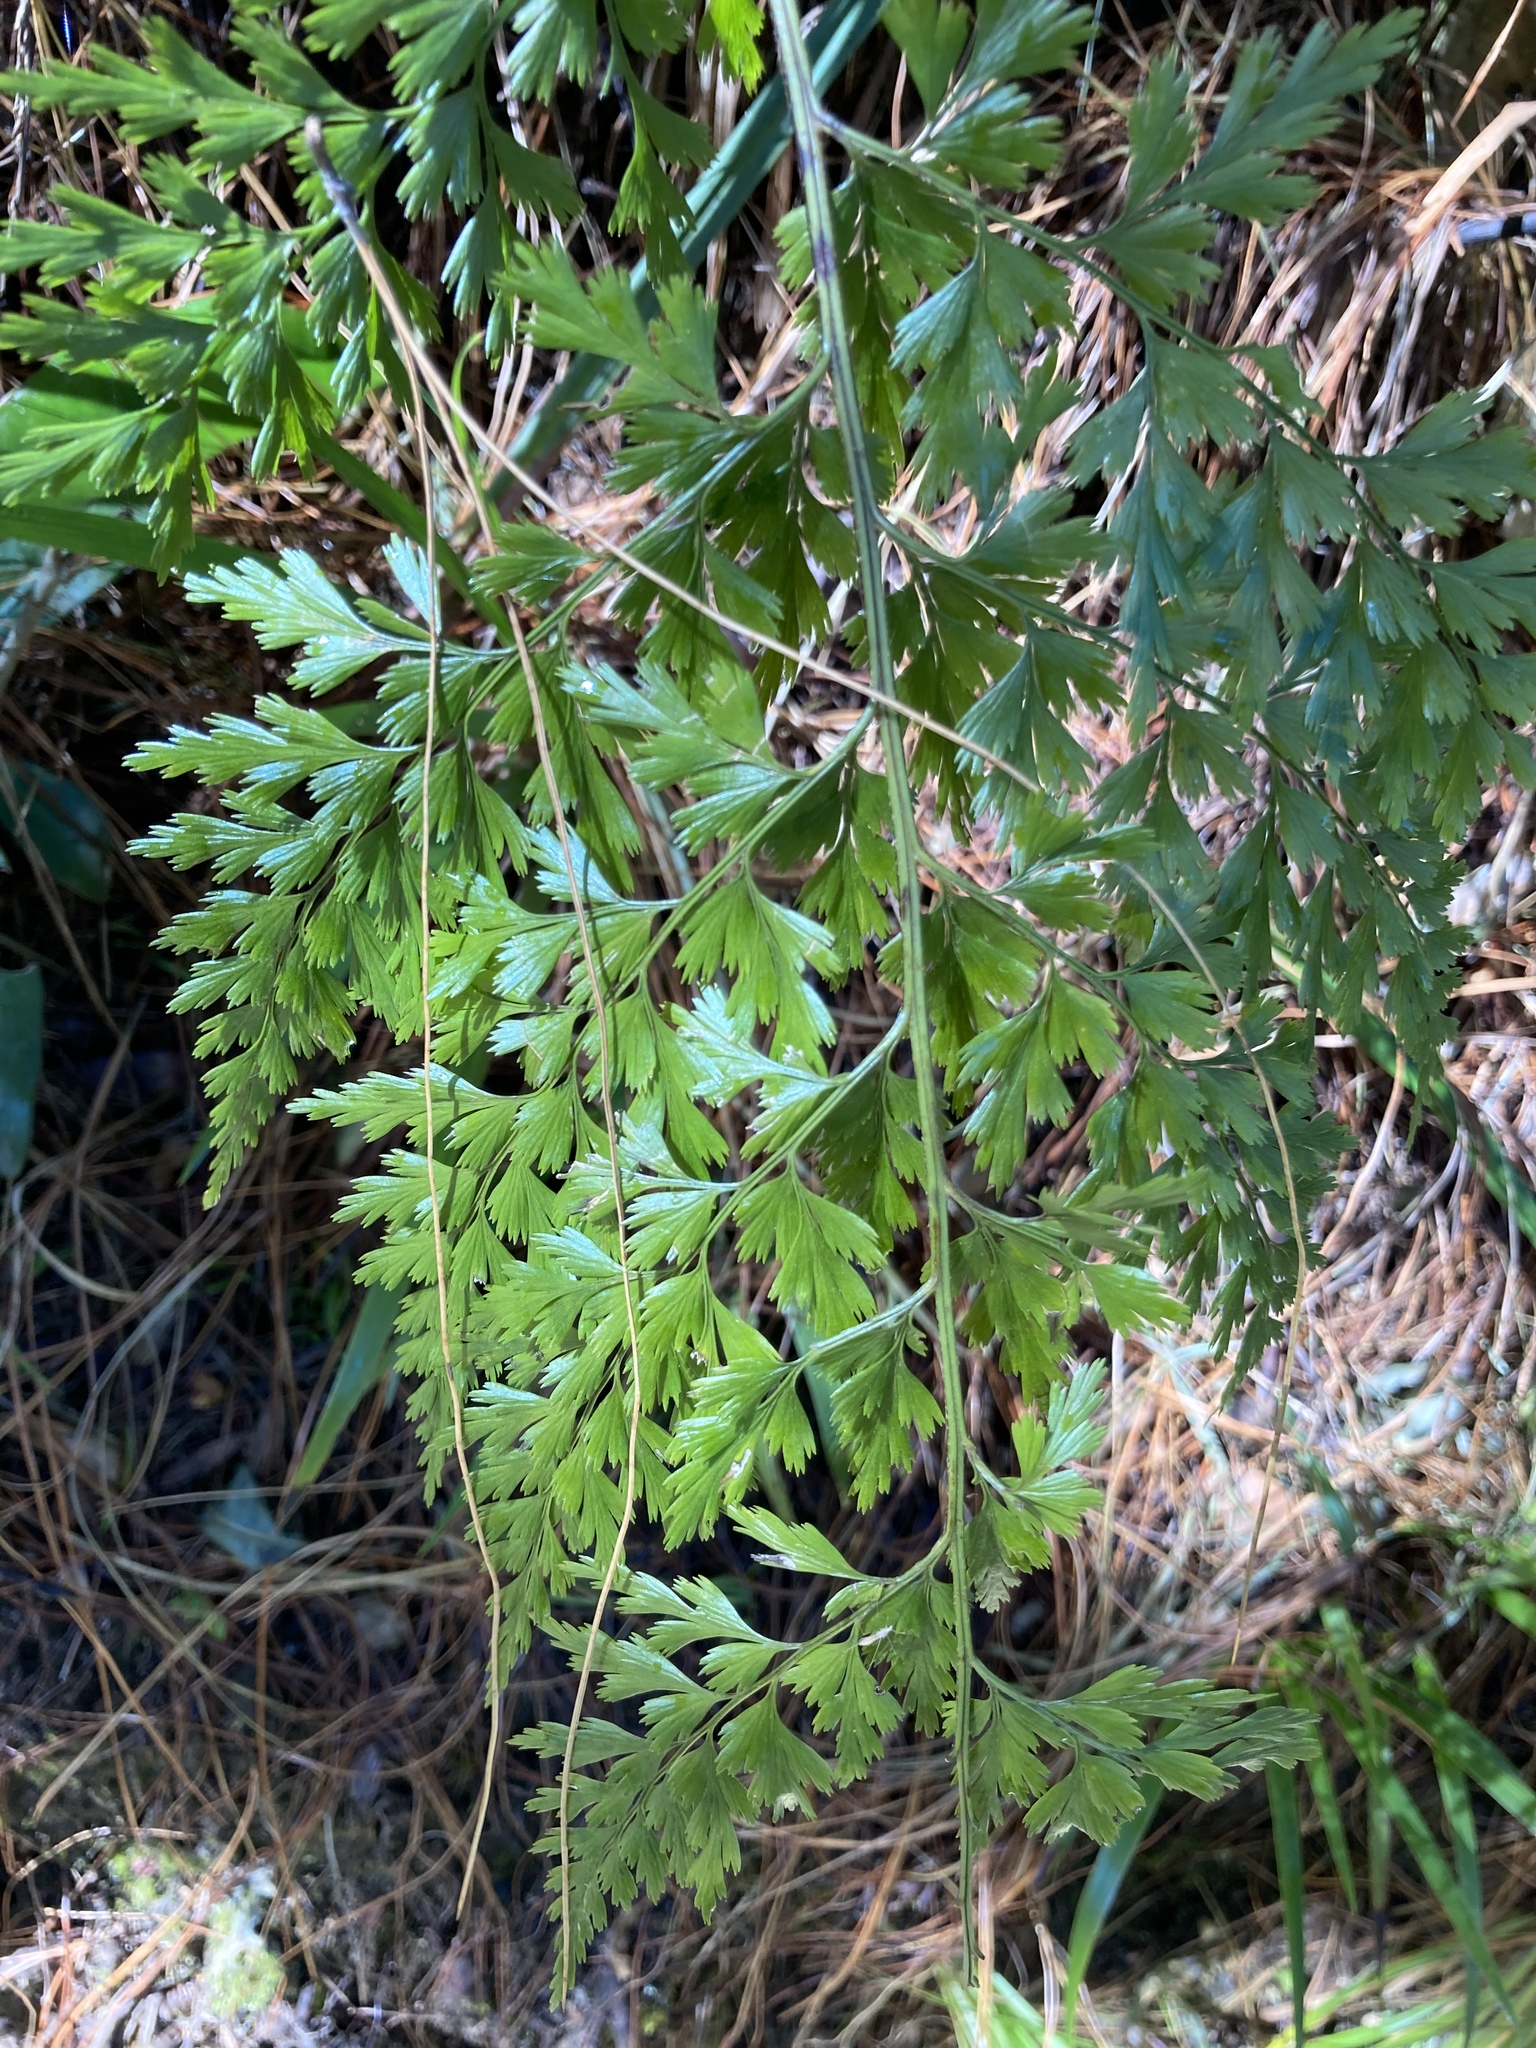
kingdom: Plantae
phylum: Tracheophyta
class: Polypodiopsida
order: Polypodiales
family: Aspleniaceae
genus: Asplenium
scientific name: Asplenium aethiopicum
